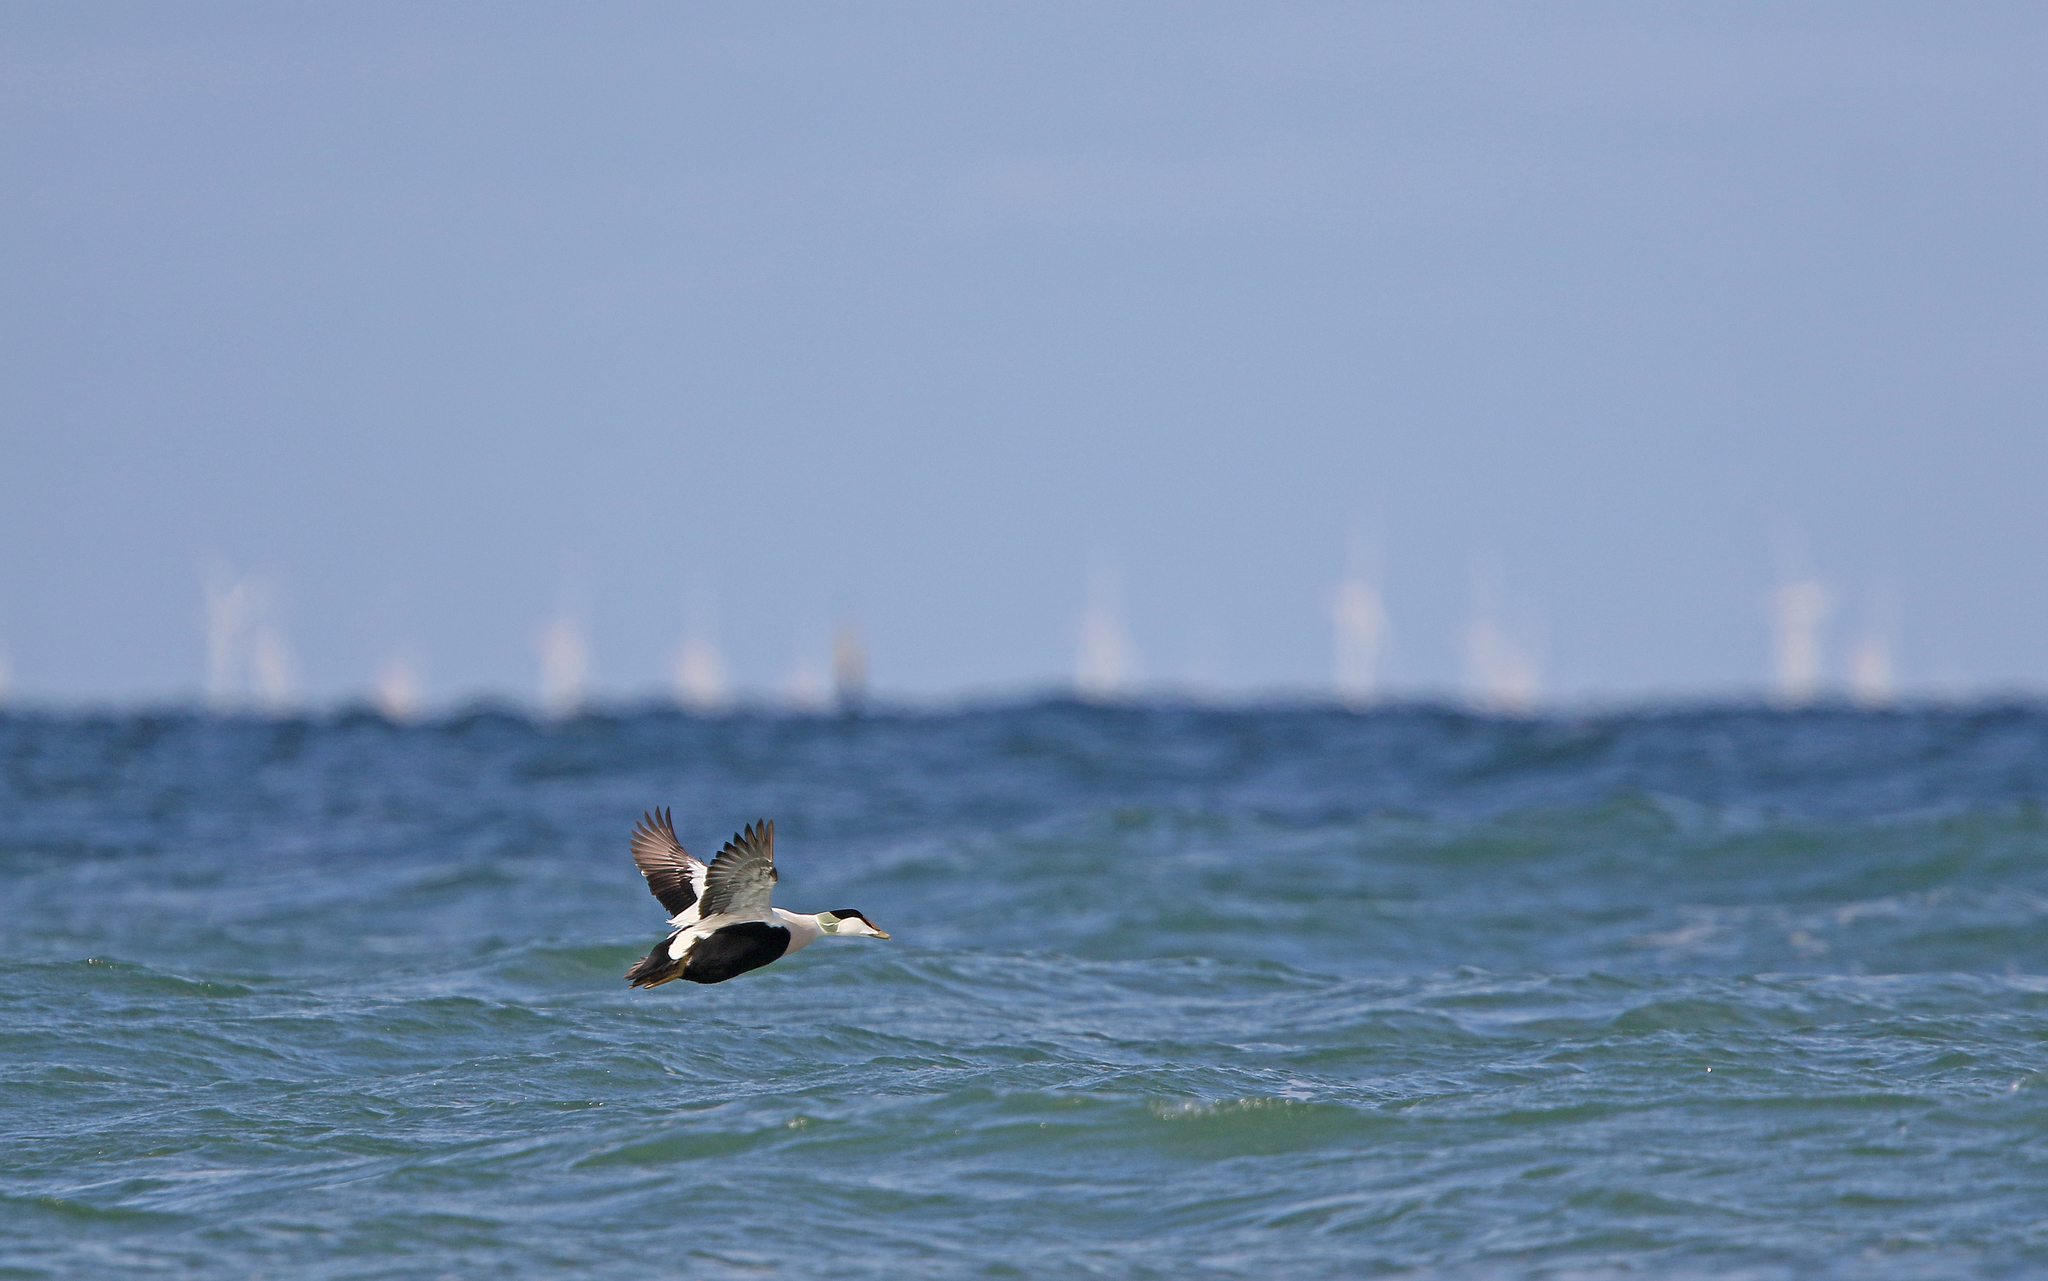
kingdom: Animalia
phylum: Chordata
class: Aves
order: Anseriformes
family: Anatidae
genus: Somateria
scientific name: Somateria mollissima
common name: Common eider
